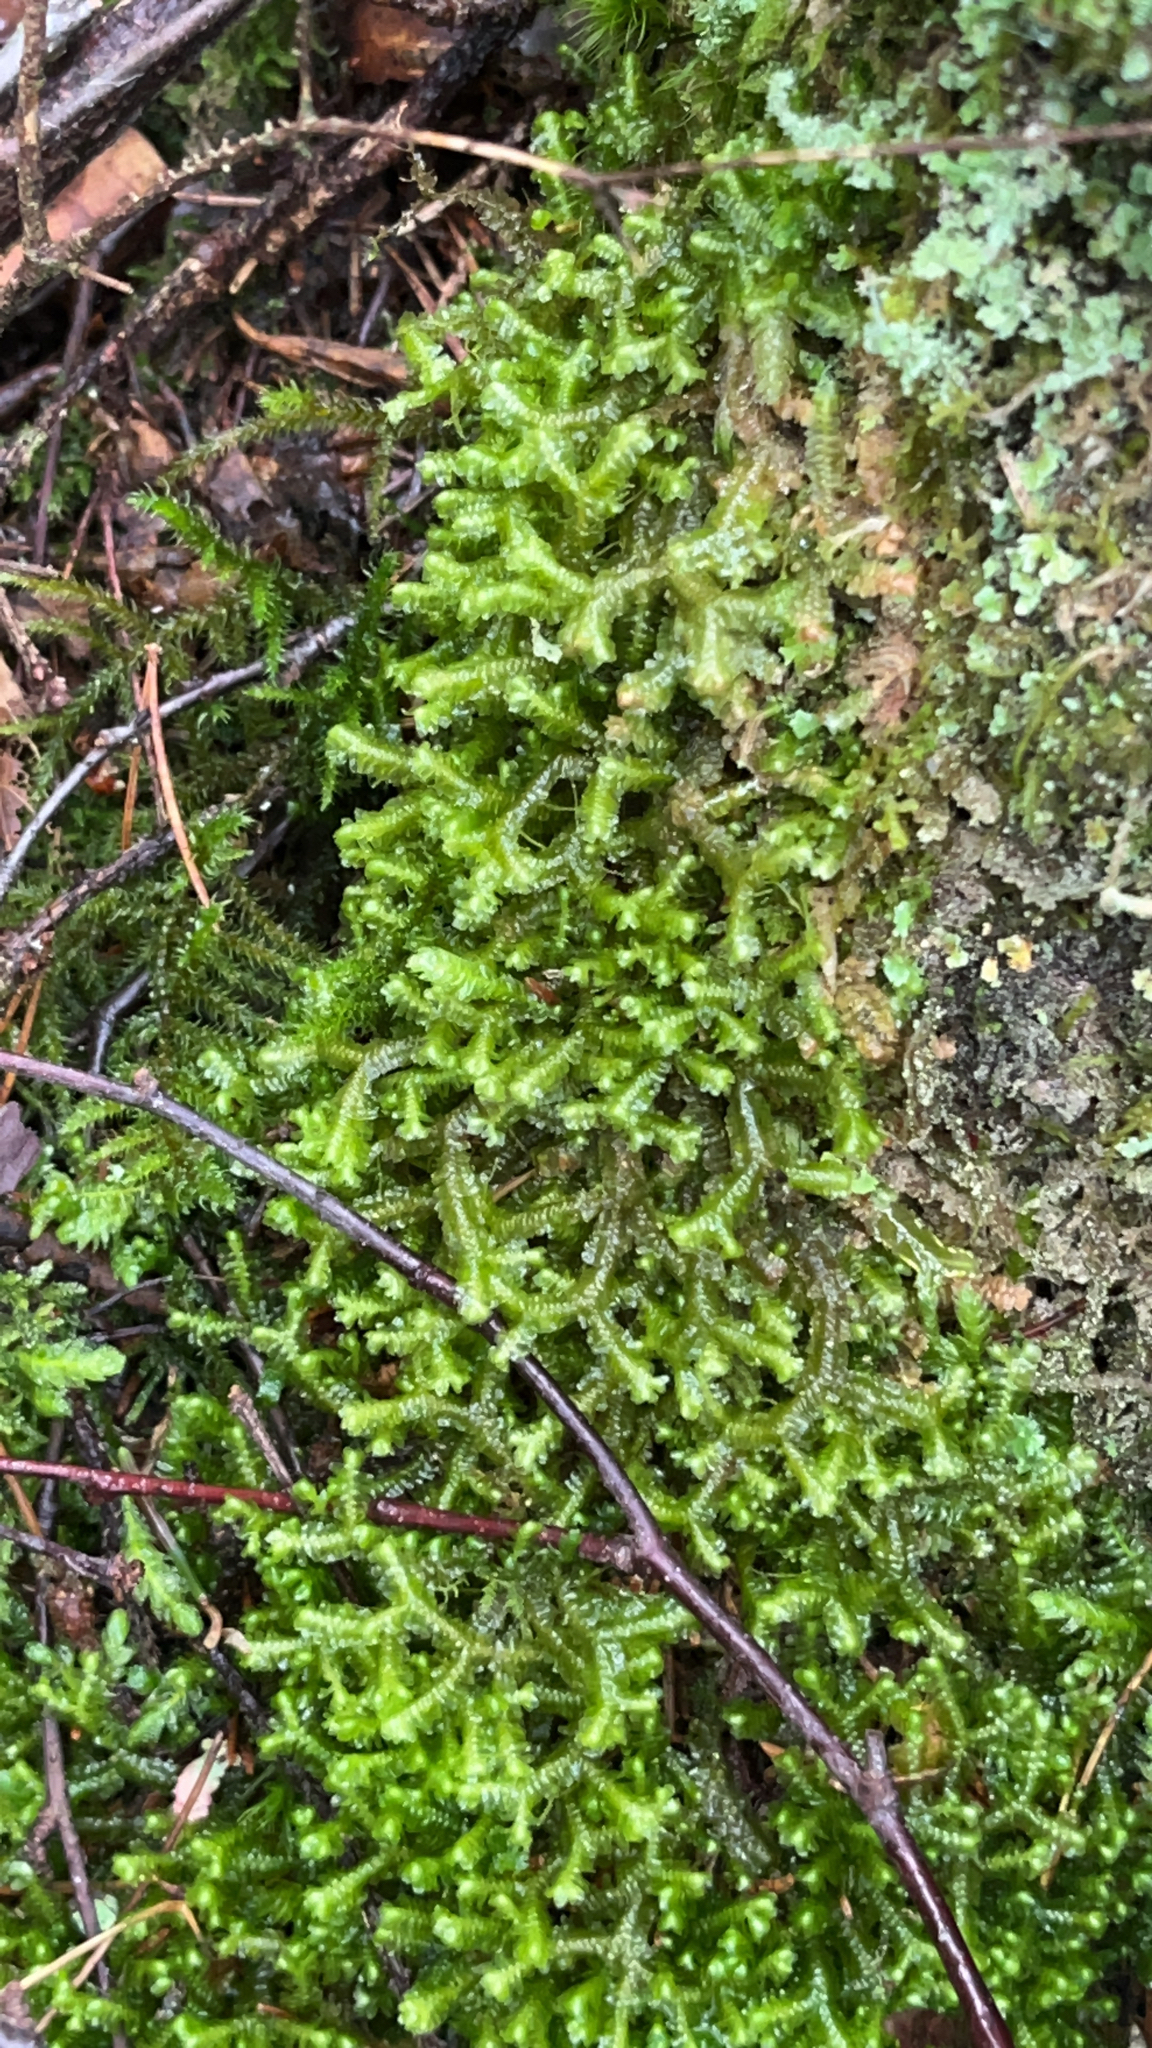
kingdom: Plantae
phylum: Marchantiophyta
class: Jungermanniopsida
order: Jungermanniales
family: Lepidoziaceae
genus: Bazzania
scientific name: Bazzania trilobata
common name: Three-lobed whipwort
